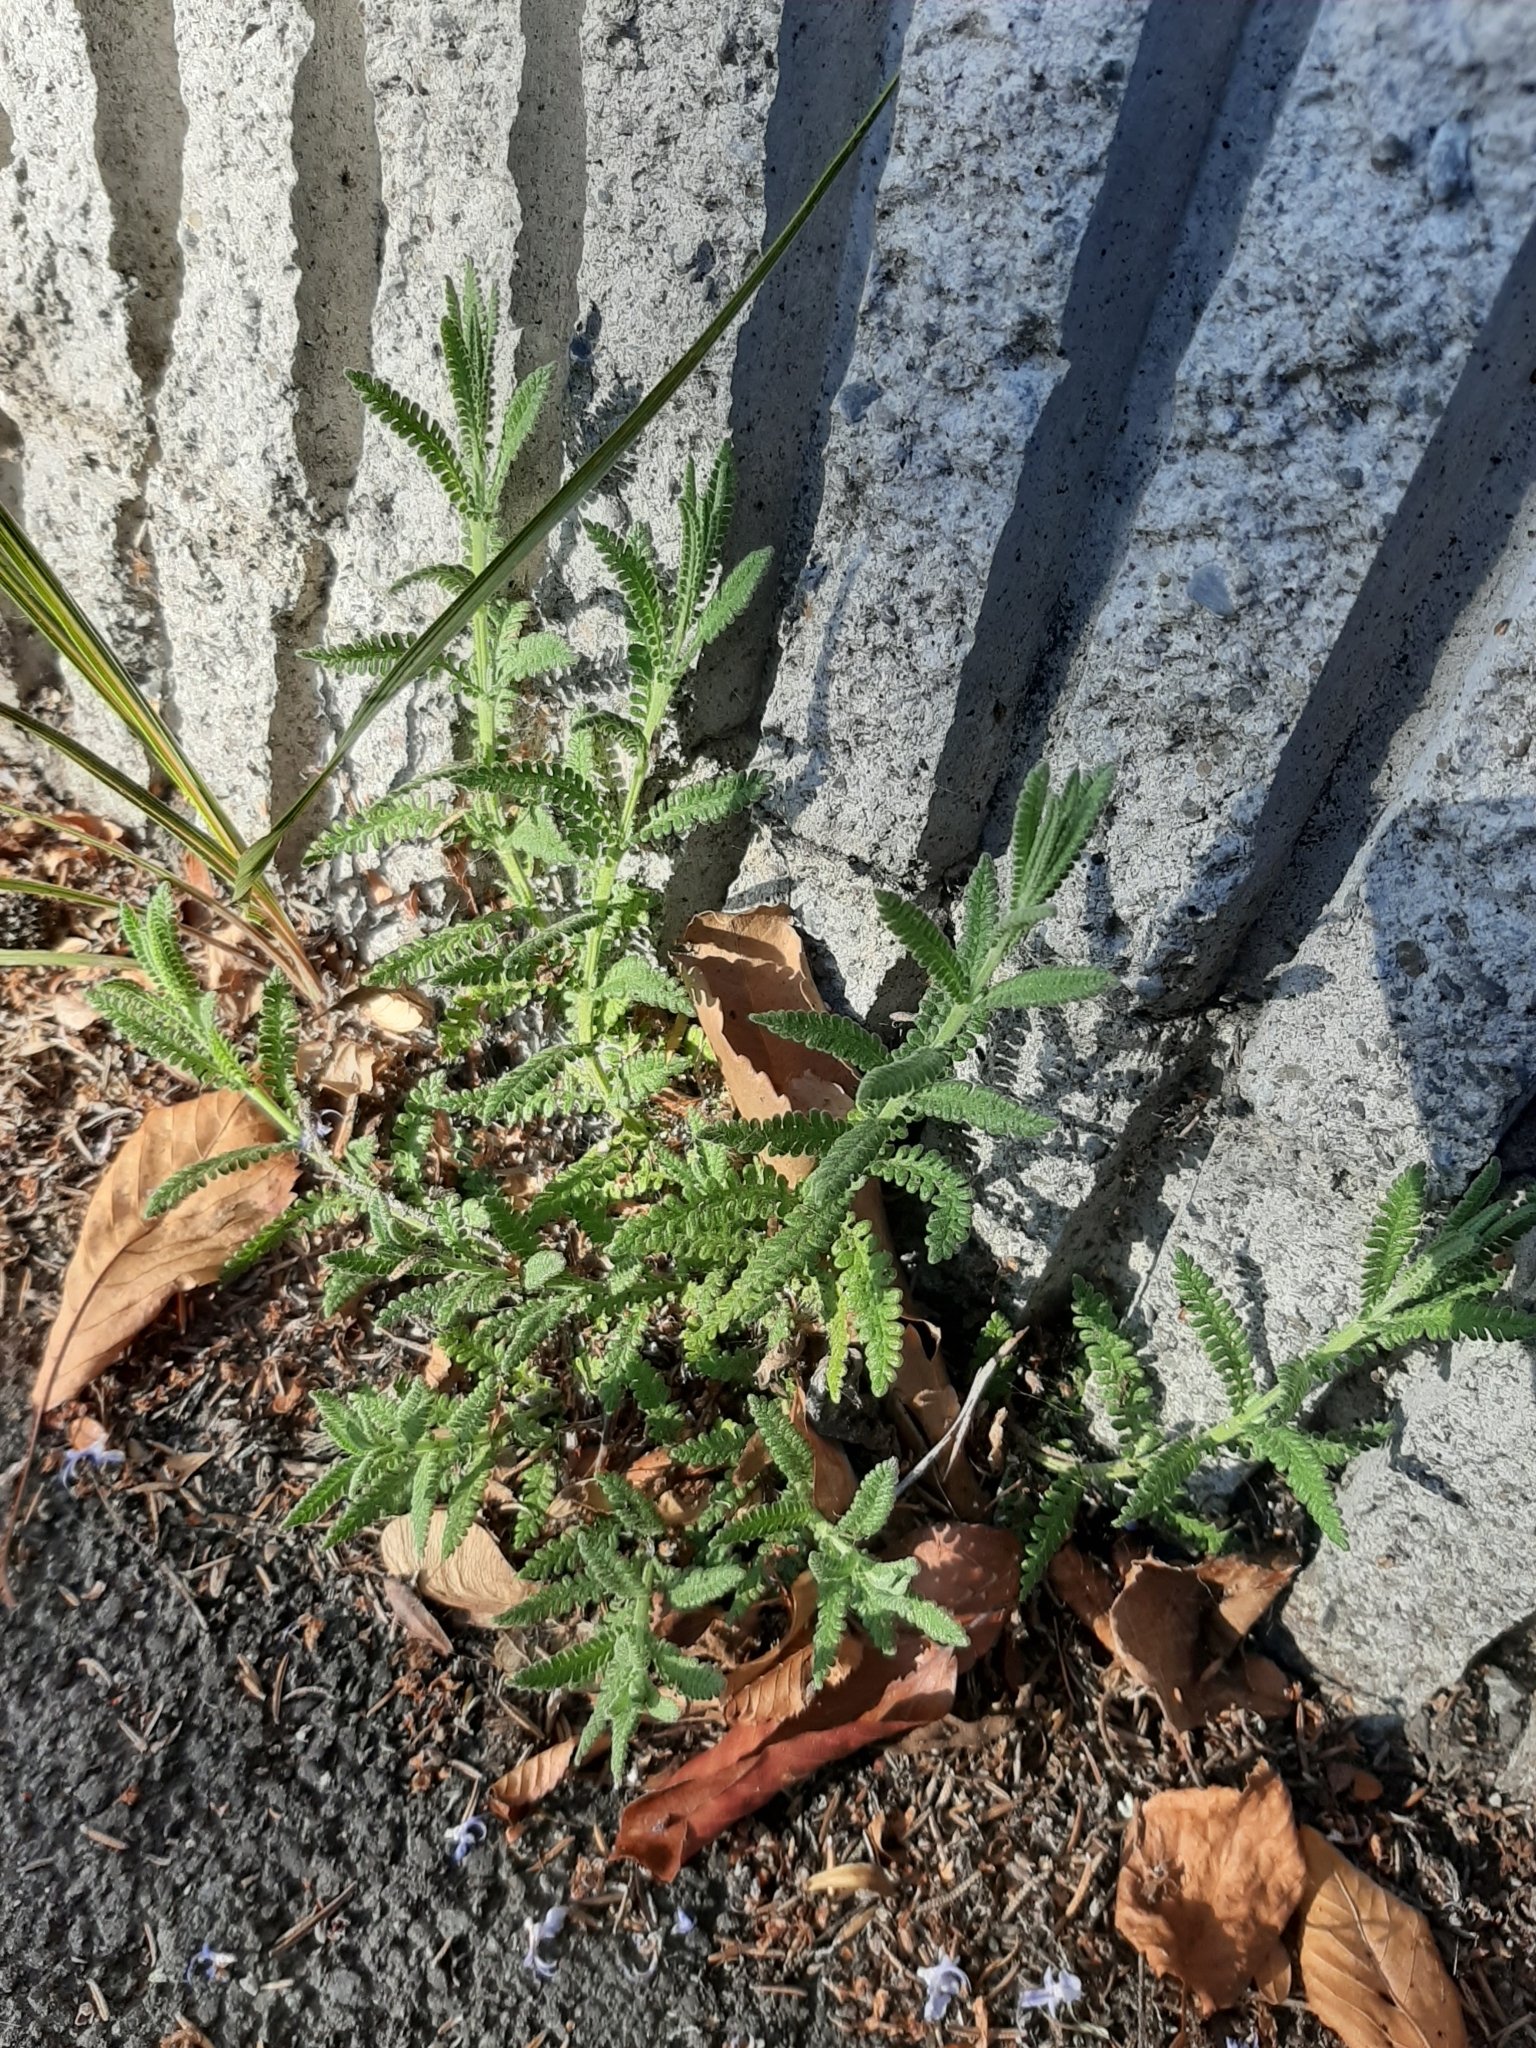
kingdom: Plantae
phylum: Tracheophyta
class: Magnoliopsida
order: Lamiales
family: Lamiaceae
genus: Lavandula
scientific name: Lavandula dentata
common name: French lavender
